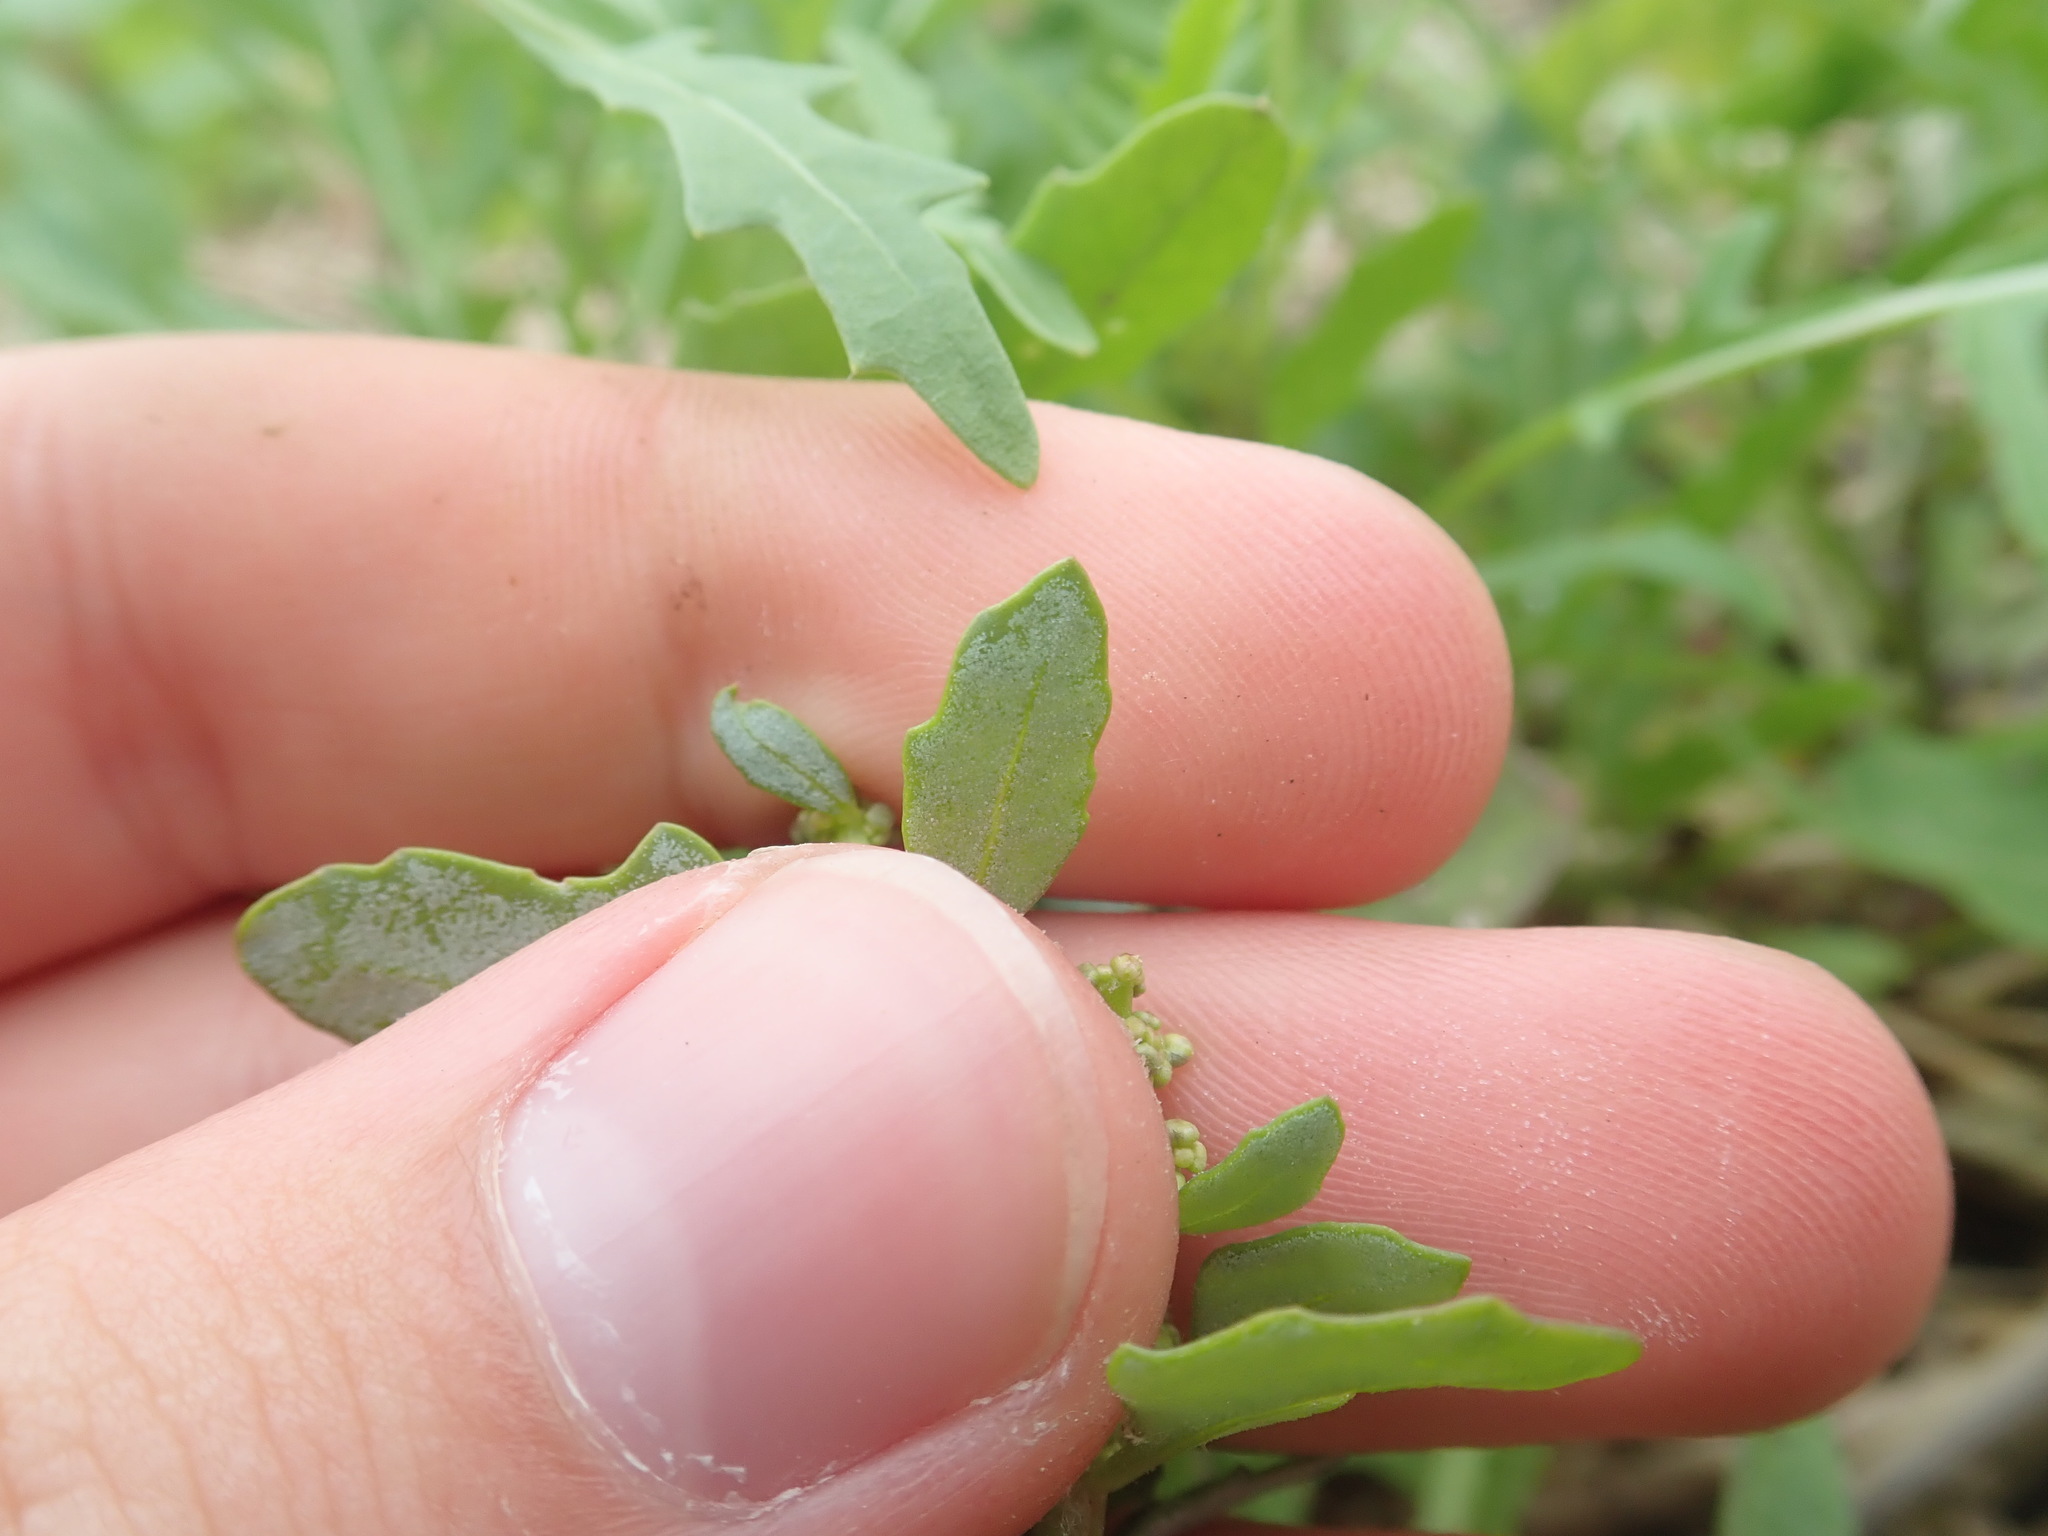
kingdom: Plantae
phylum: Tracheophyta
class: Magnoliopsida
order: Caryophyllales
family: Amaranthaceae
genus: Oxybasis
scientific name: Oxybasis glauca
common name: Glaucous goosefoot
